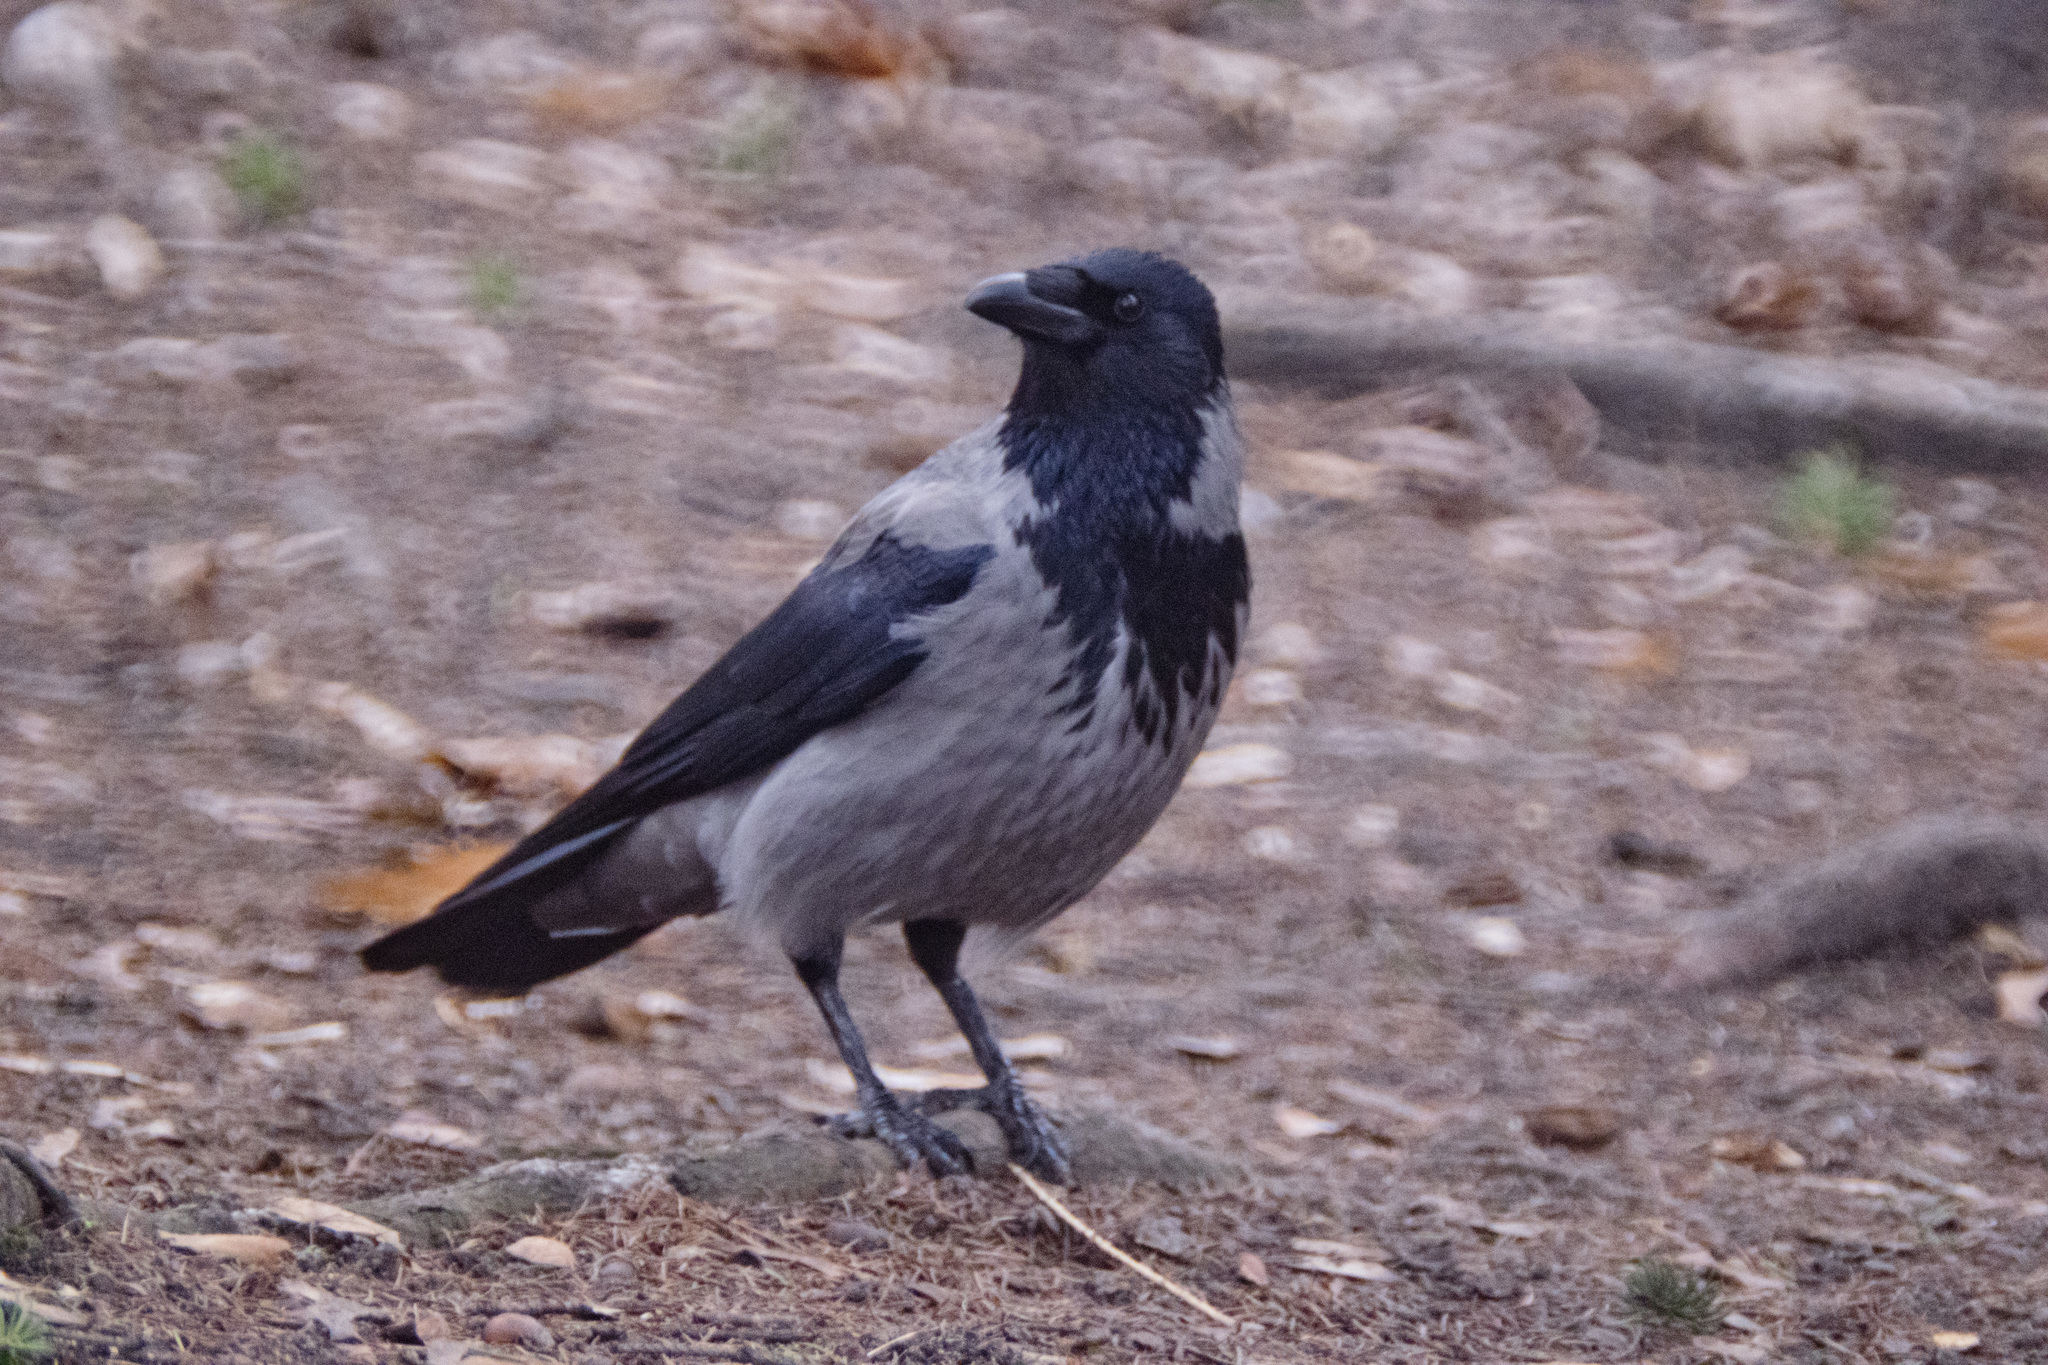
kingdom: Animalia
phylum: Chordata
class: Aves
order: Passeriformes
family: Corvidae
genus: Corvus
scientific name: Corvus cornix
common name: Hooded crow
